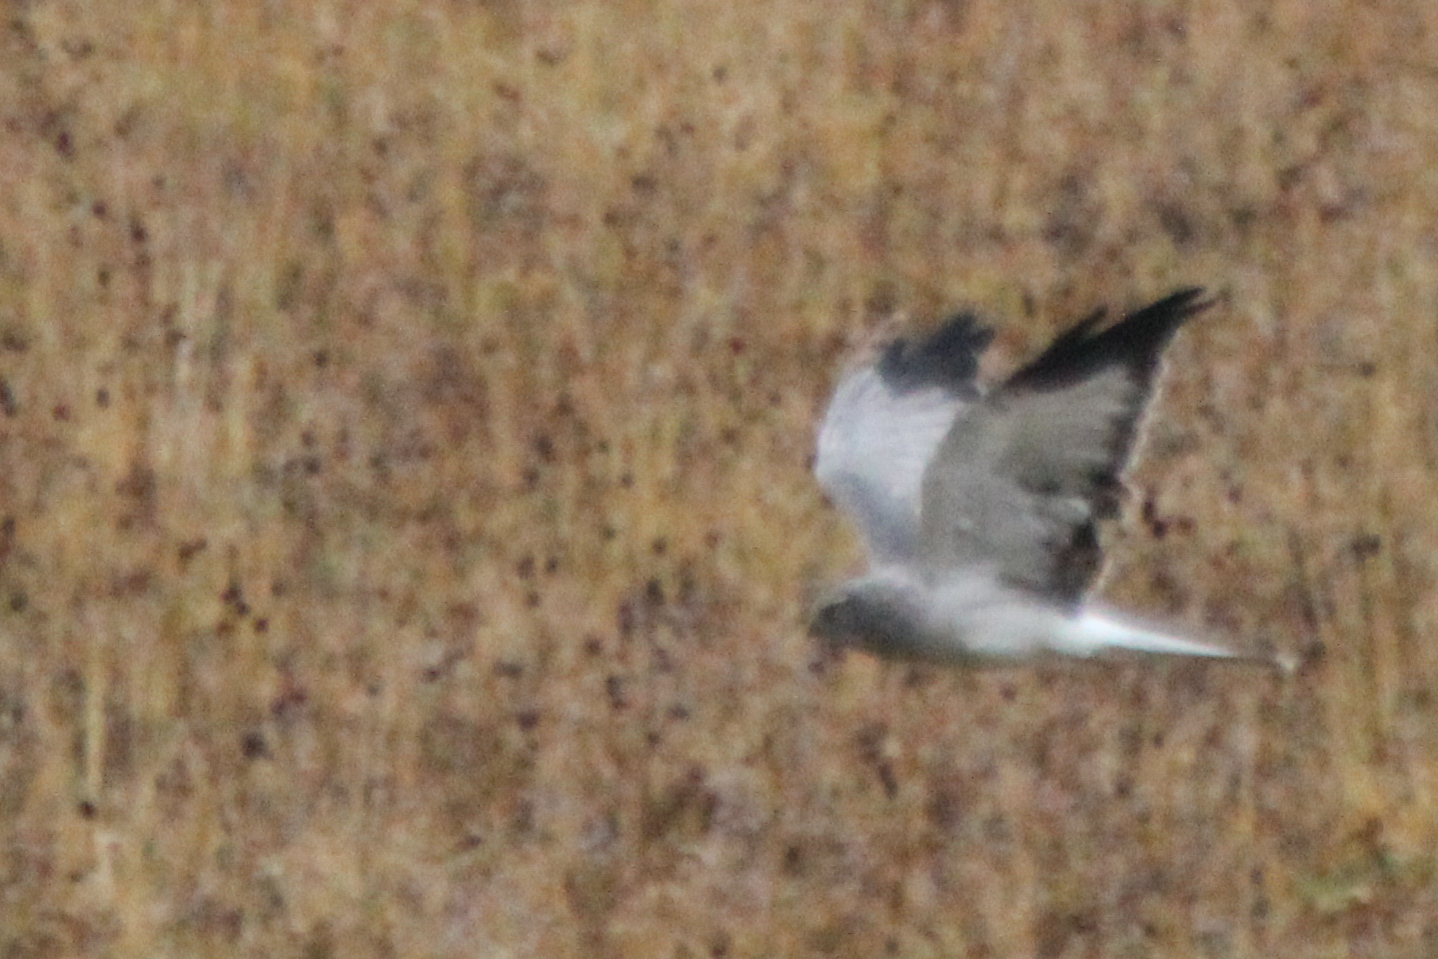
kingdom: Animalia
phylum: Chordata
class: Aves
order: Accipitriformes
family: Accipitridae
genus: Circus
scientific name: Circus cyaneus
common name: Hen harrier
